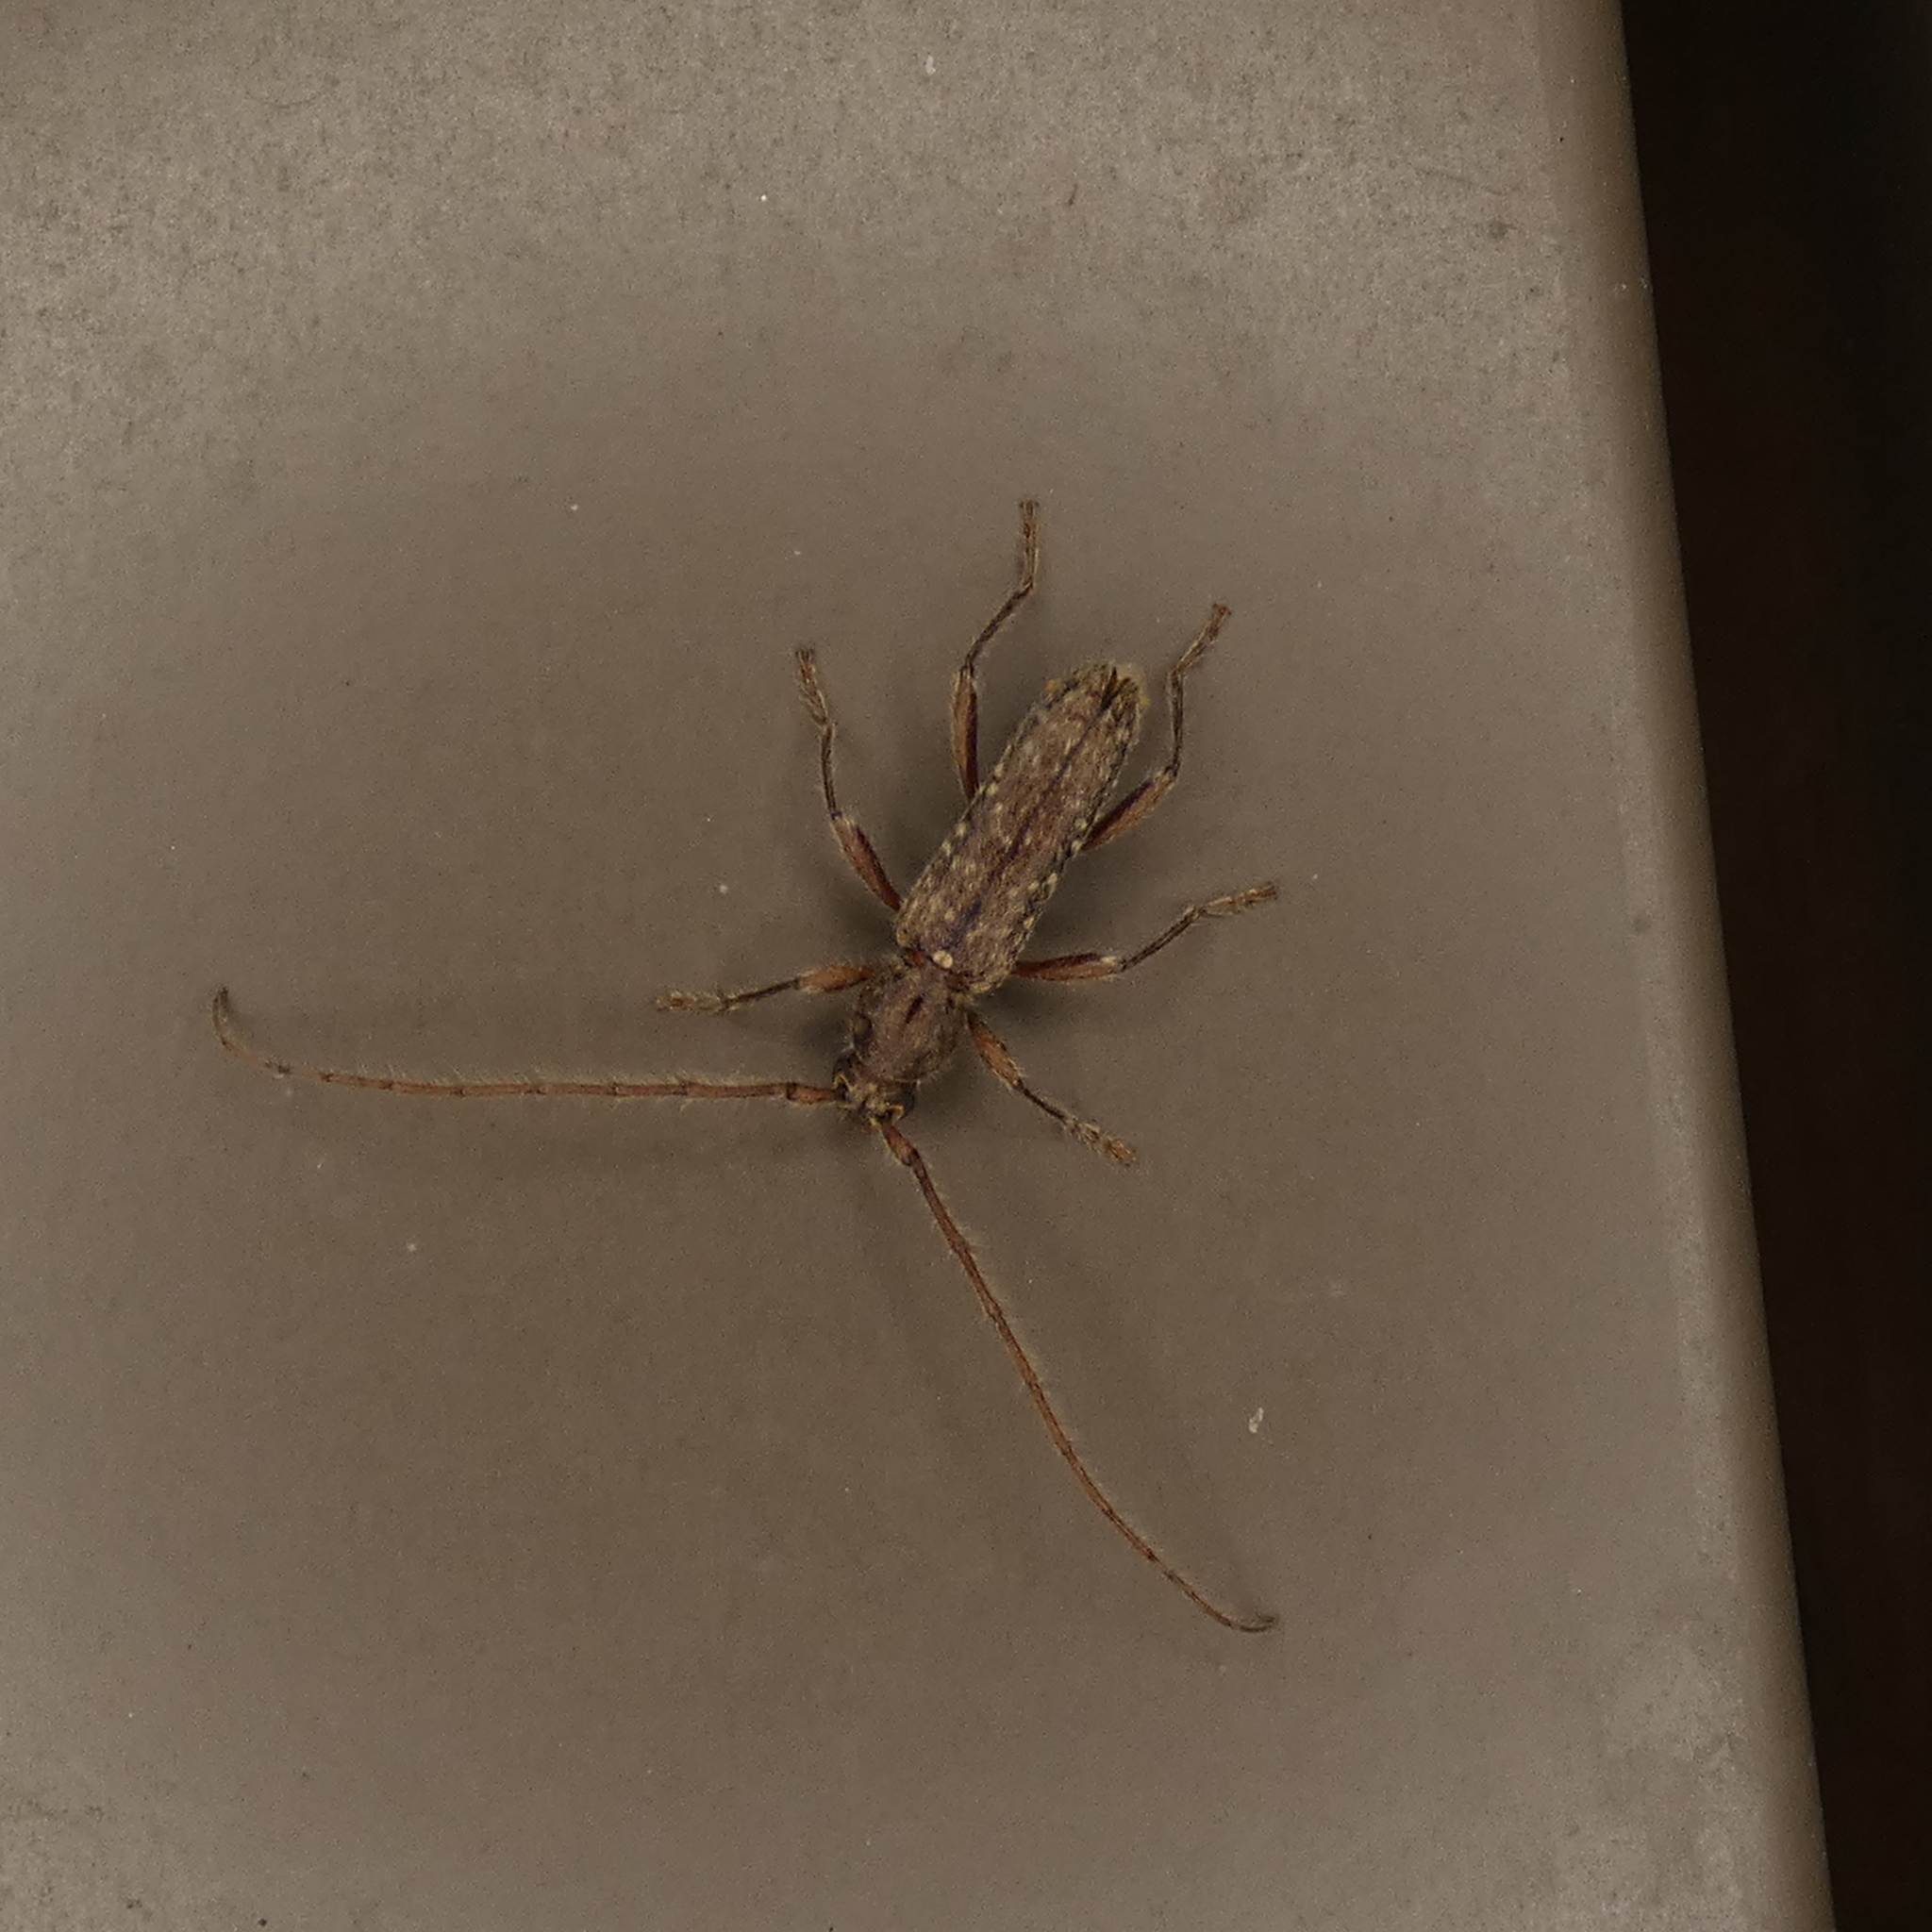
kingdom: Animalia
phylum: Arthropoda
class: Insecta
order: Coleoptera
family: Cerambycidae
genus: Anelaphus
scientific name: Anelaphus pumilus
